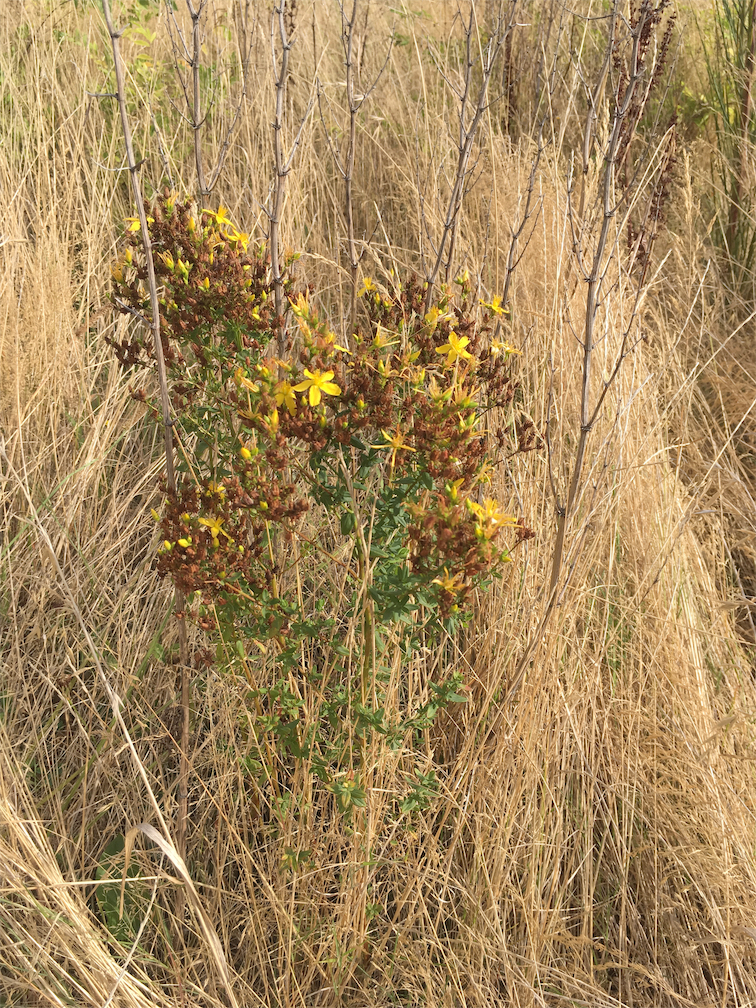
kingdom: Plantae
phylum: Tracheophyta
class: Magnoliopsida
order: Malpighiales
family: Hypericaceae
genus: Hypericum
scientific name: Hypericum perforatum
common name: Common st. johnswort
